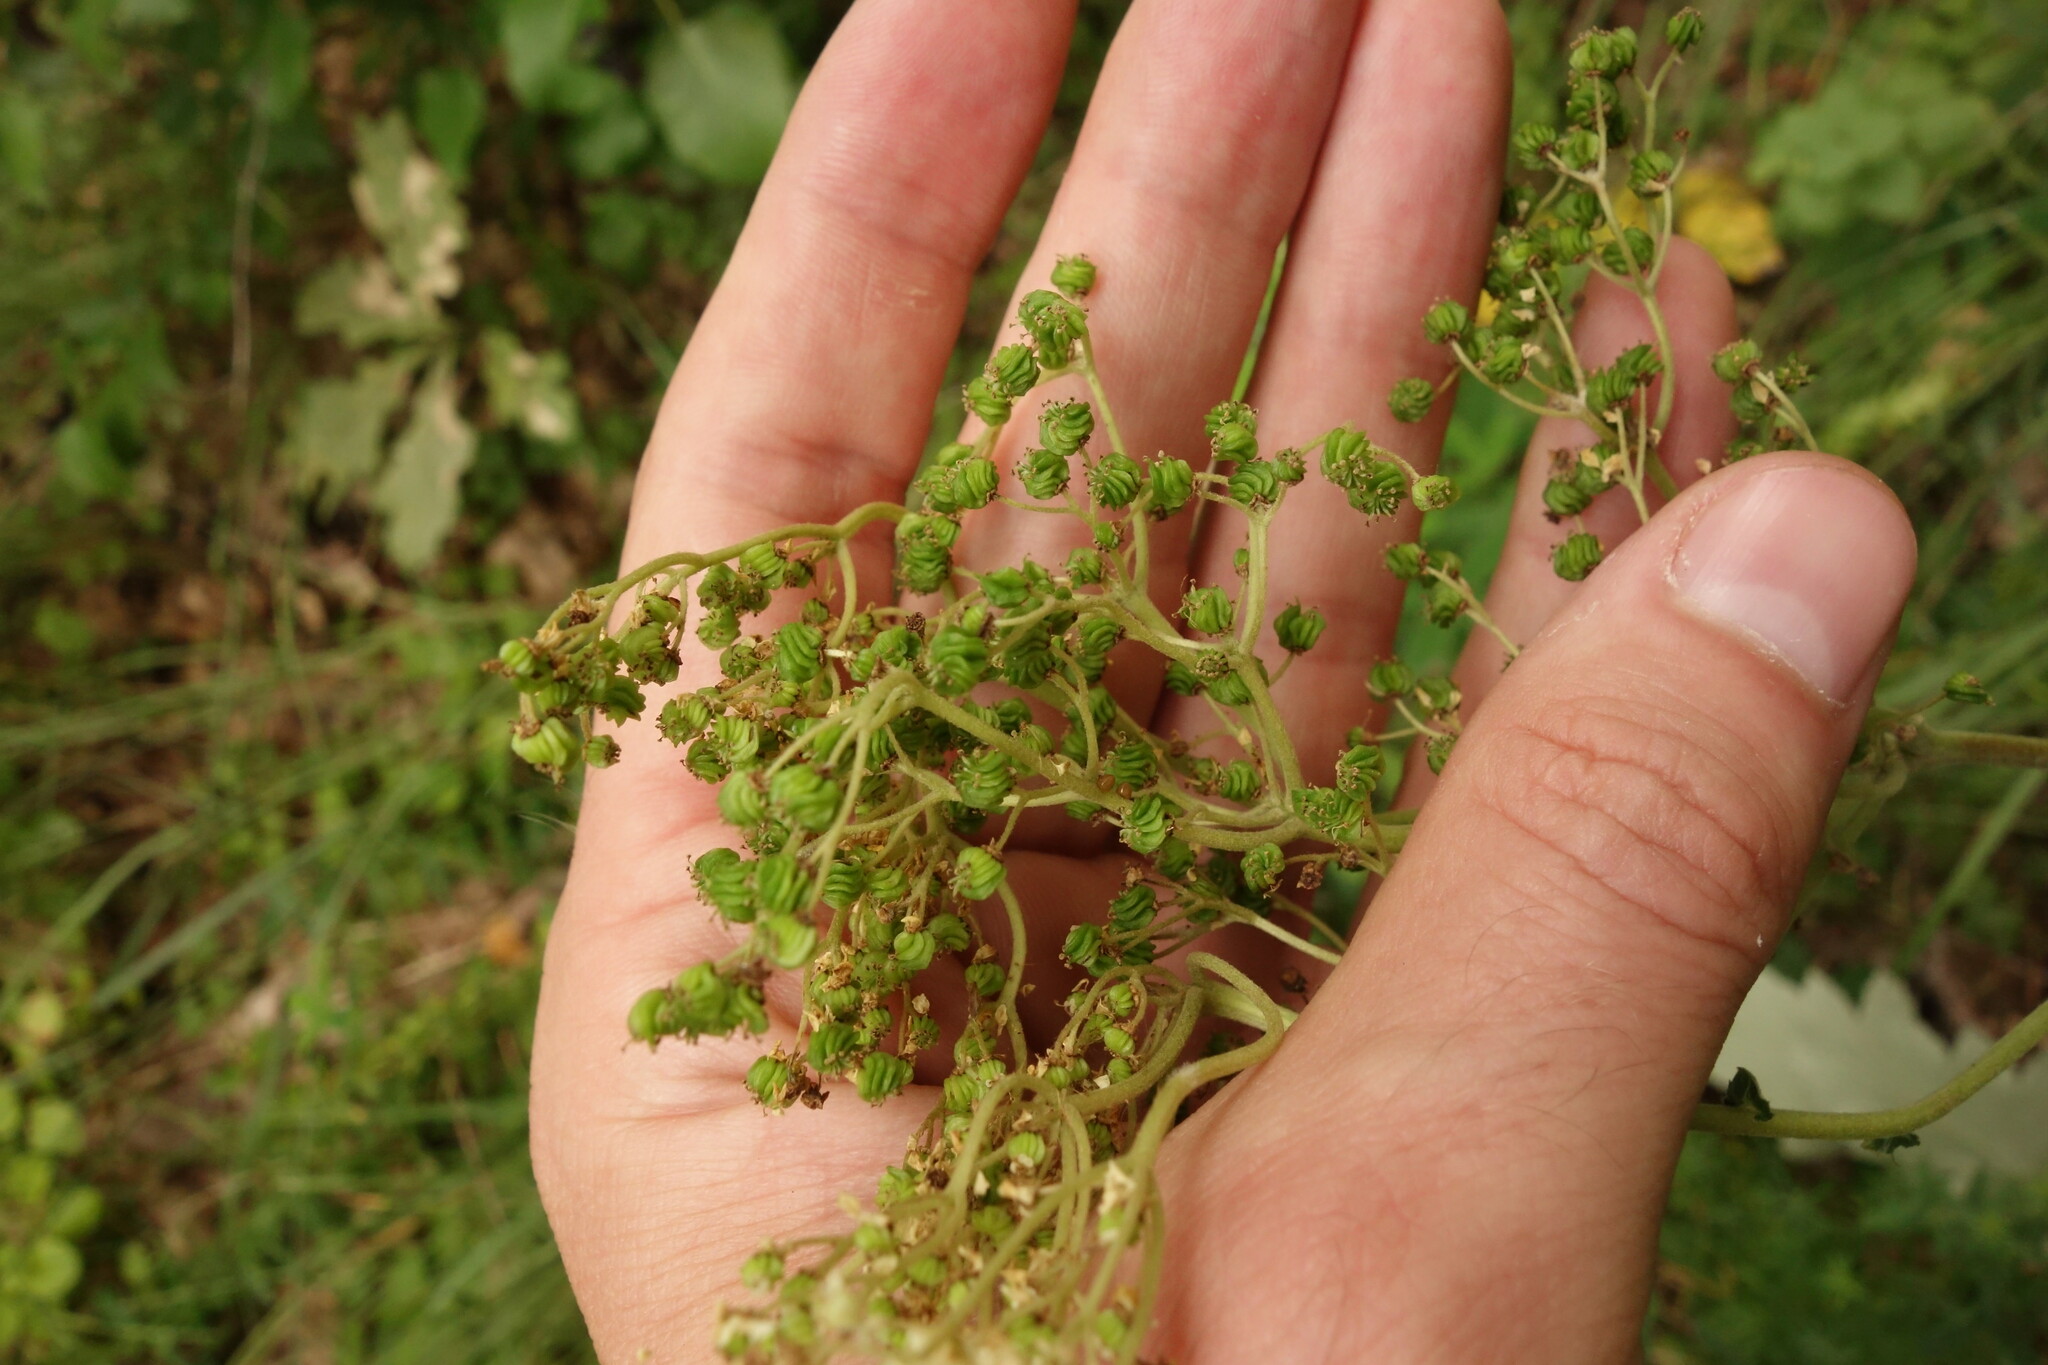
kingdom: Plantae
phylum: Tracheophyta
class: Magnoliopsida
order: Rosales
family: Rosaceae
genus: Filipendula
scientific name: Filipendula ulmaria
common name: Meadowsweet
